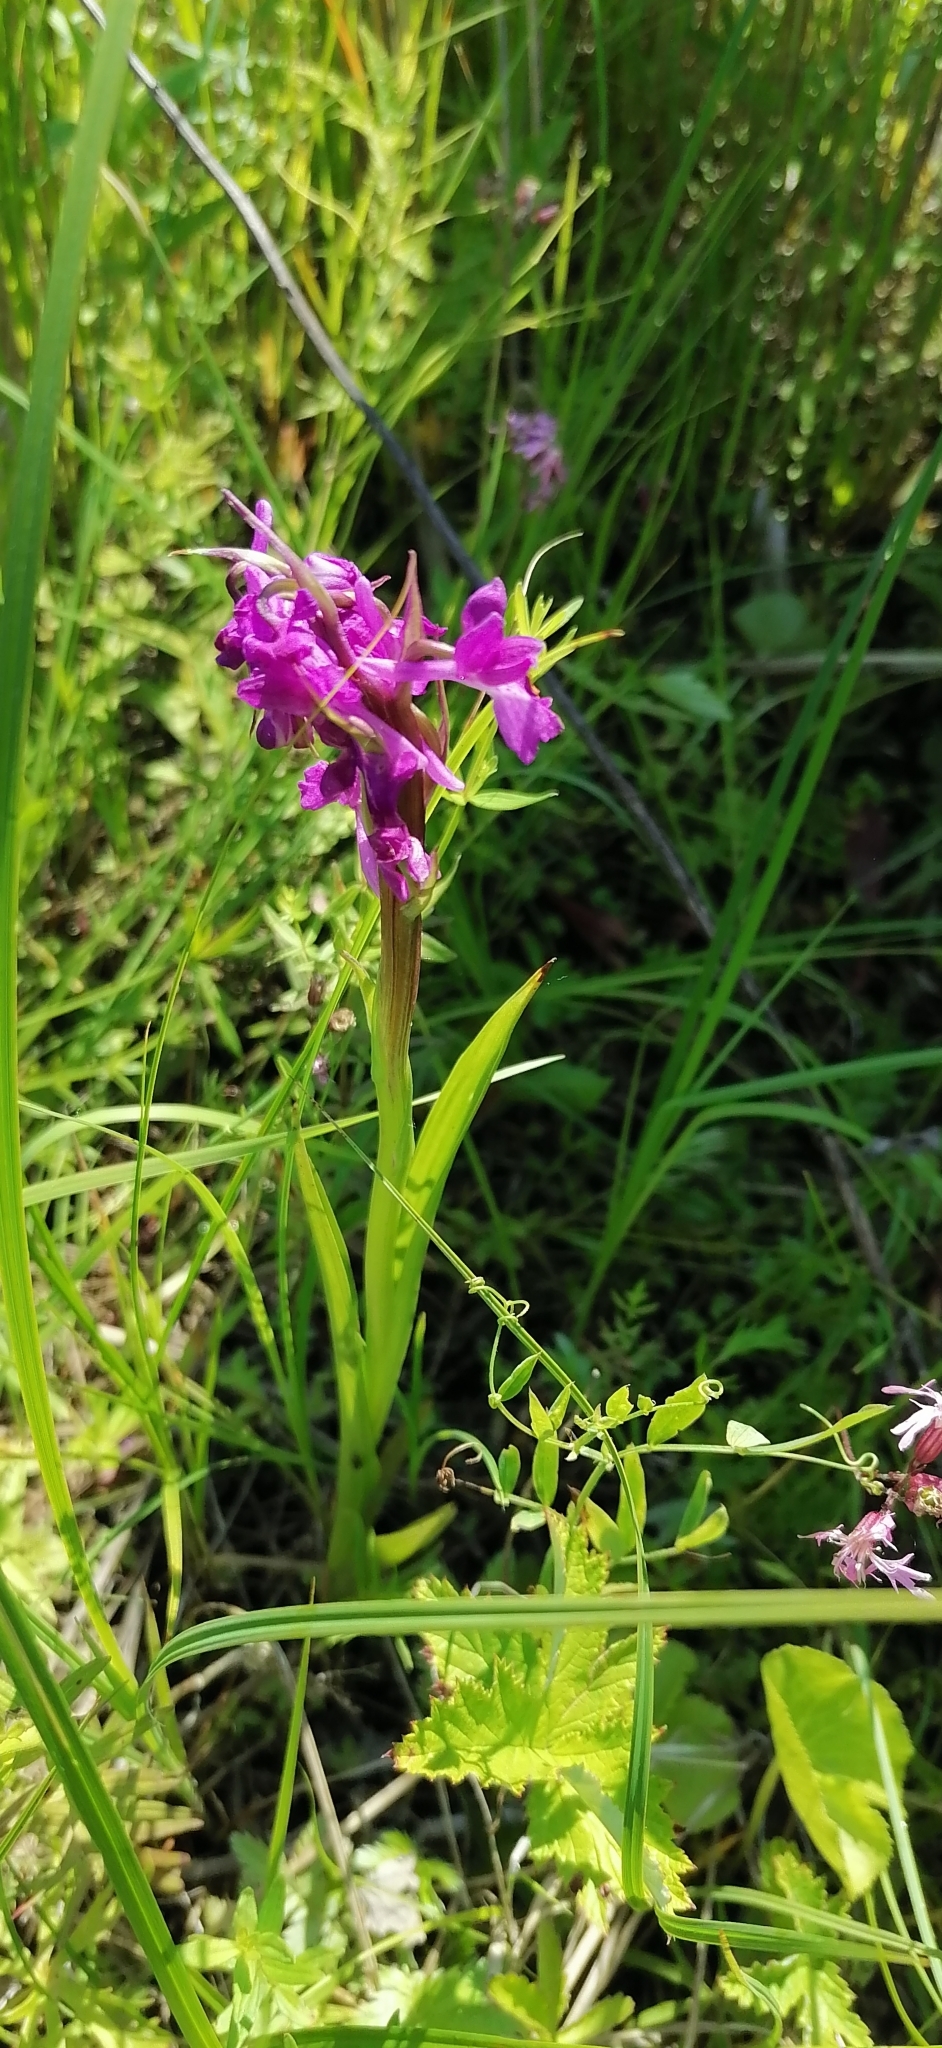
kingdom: Plantae
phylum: Tracheophyta
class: Liliopsida
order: Asparagales
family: Orchidaceae
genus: Anacamptis
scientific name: Anacamptis palustris
